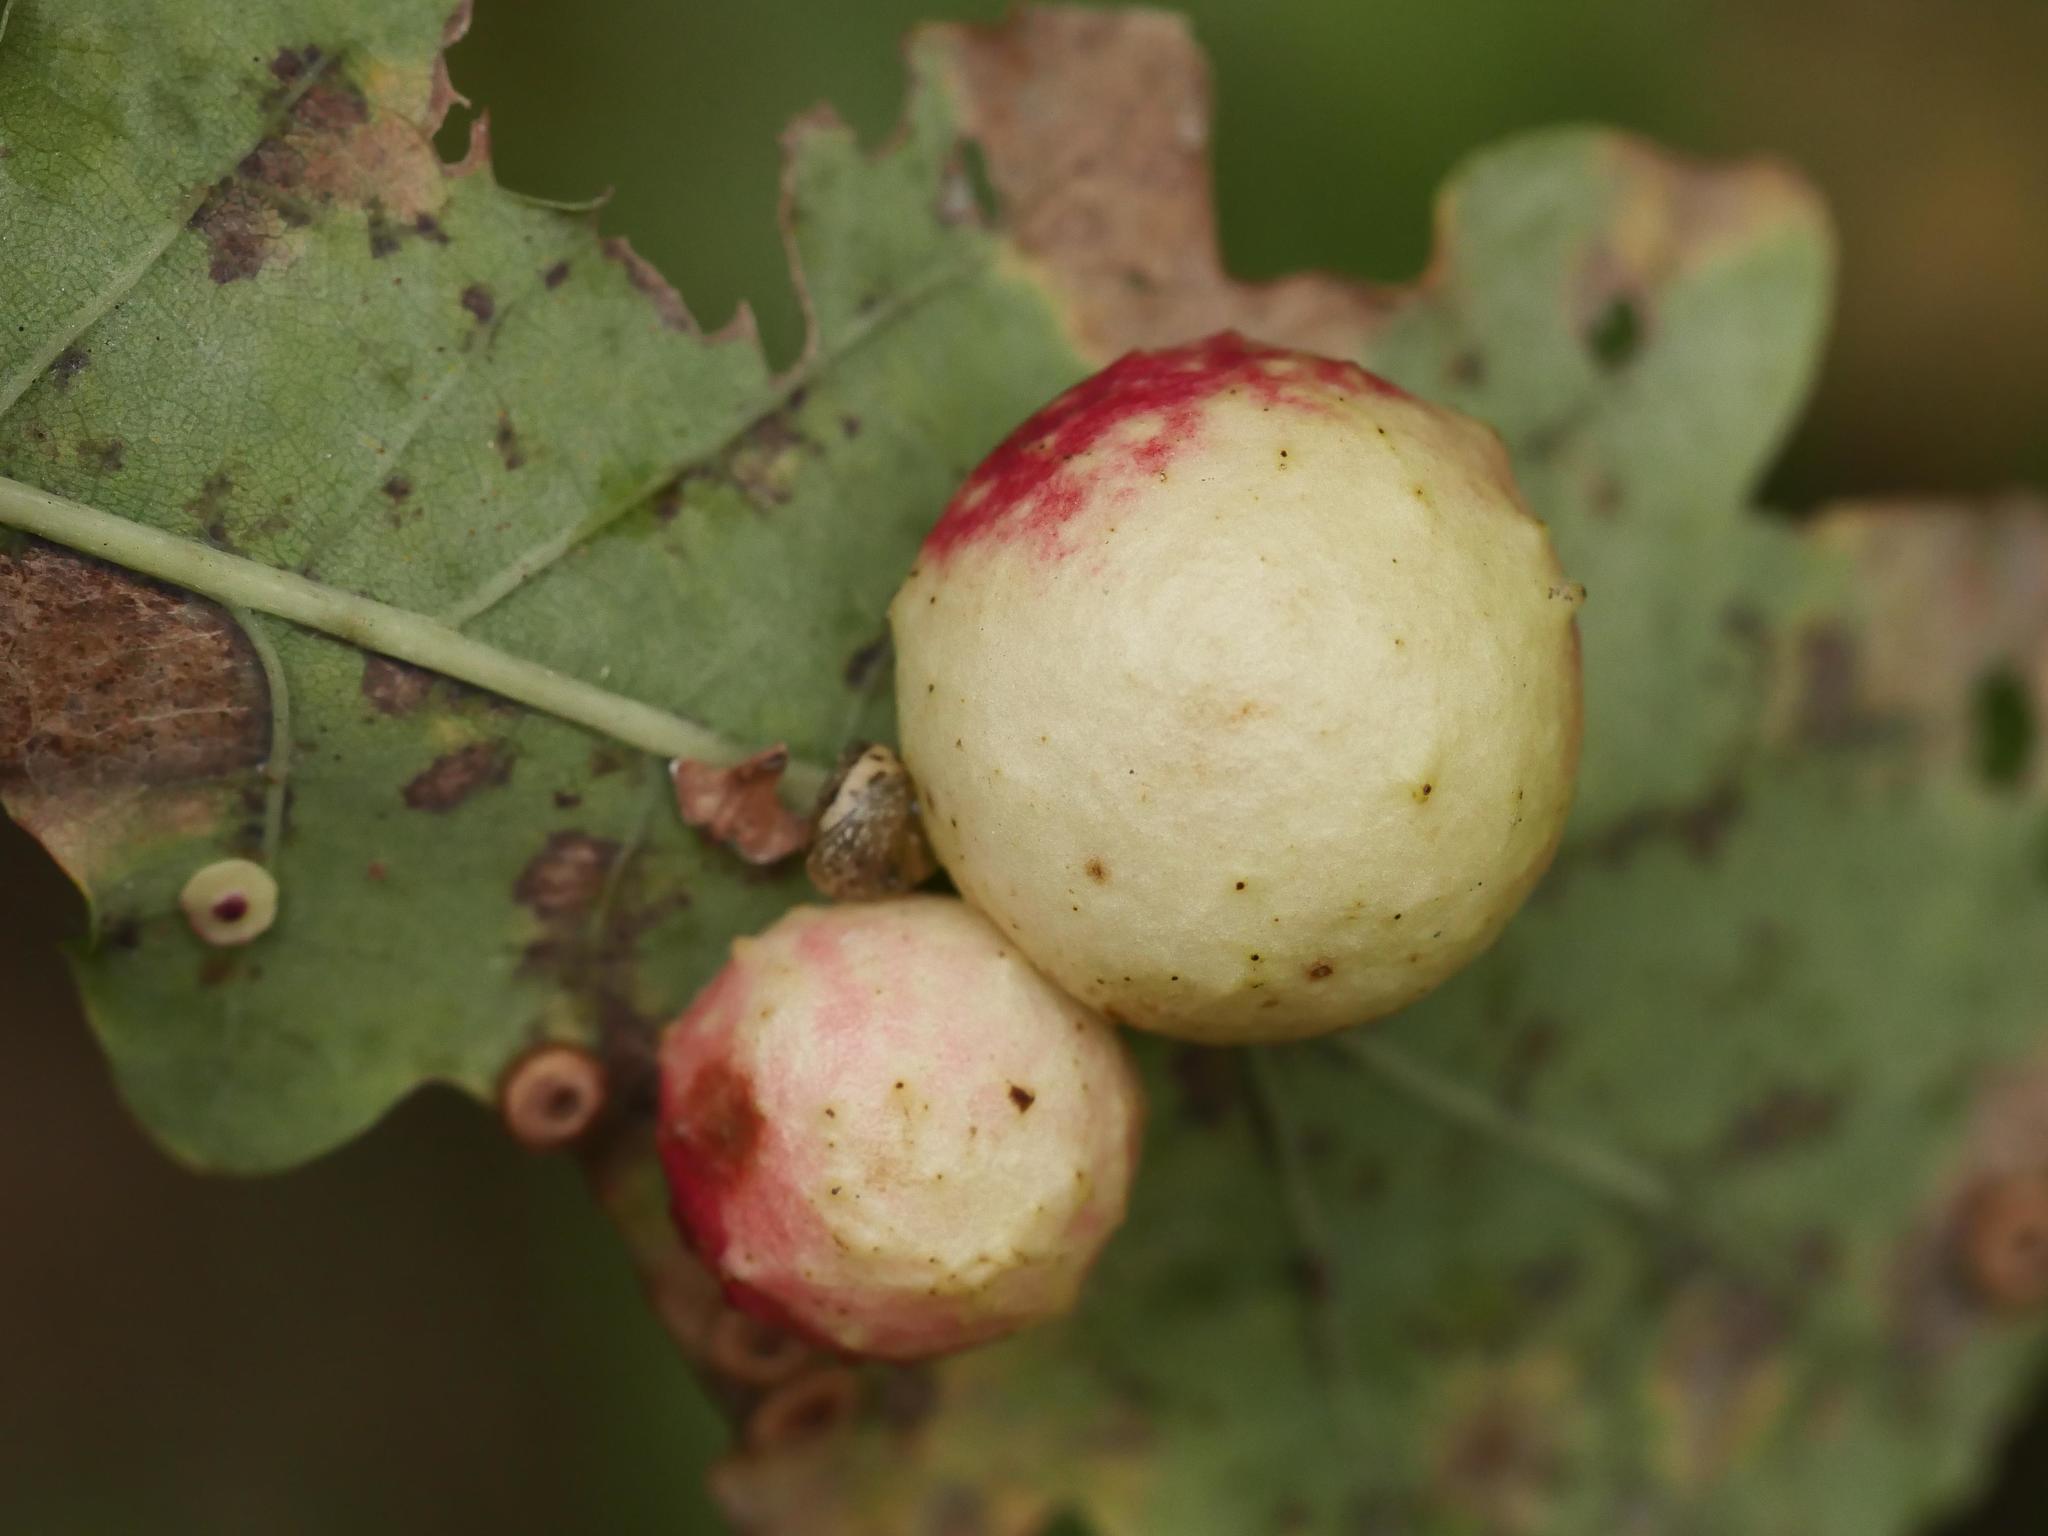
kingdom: Animalia
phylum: Arthropoda
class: Insecta
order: Hymenoptera
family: Cynipidae
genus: Cynips
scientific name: Cynips quercusfolii
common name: Cherry gall
